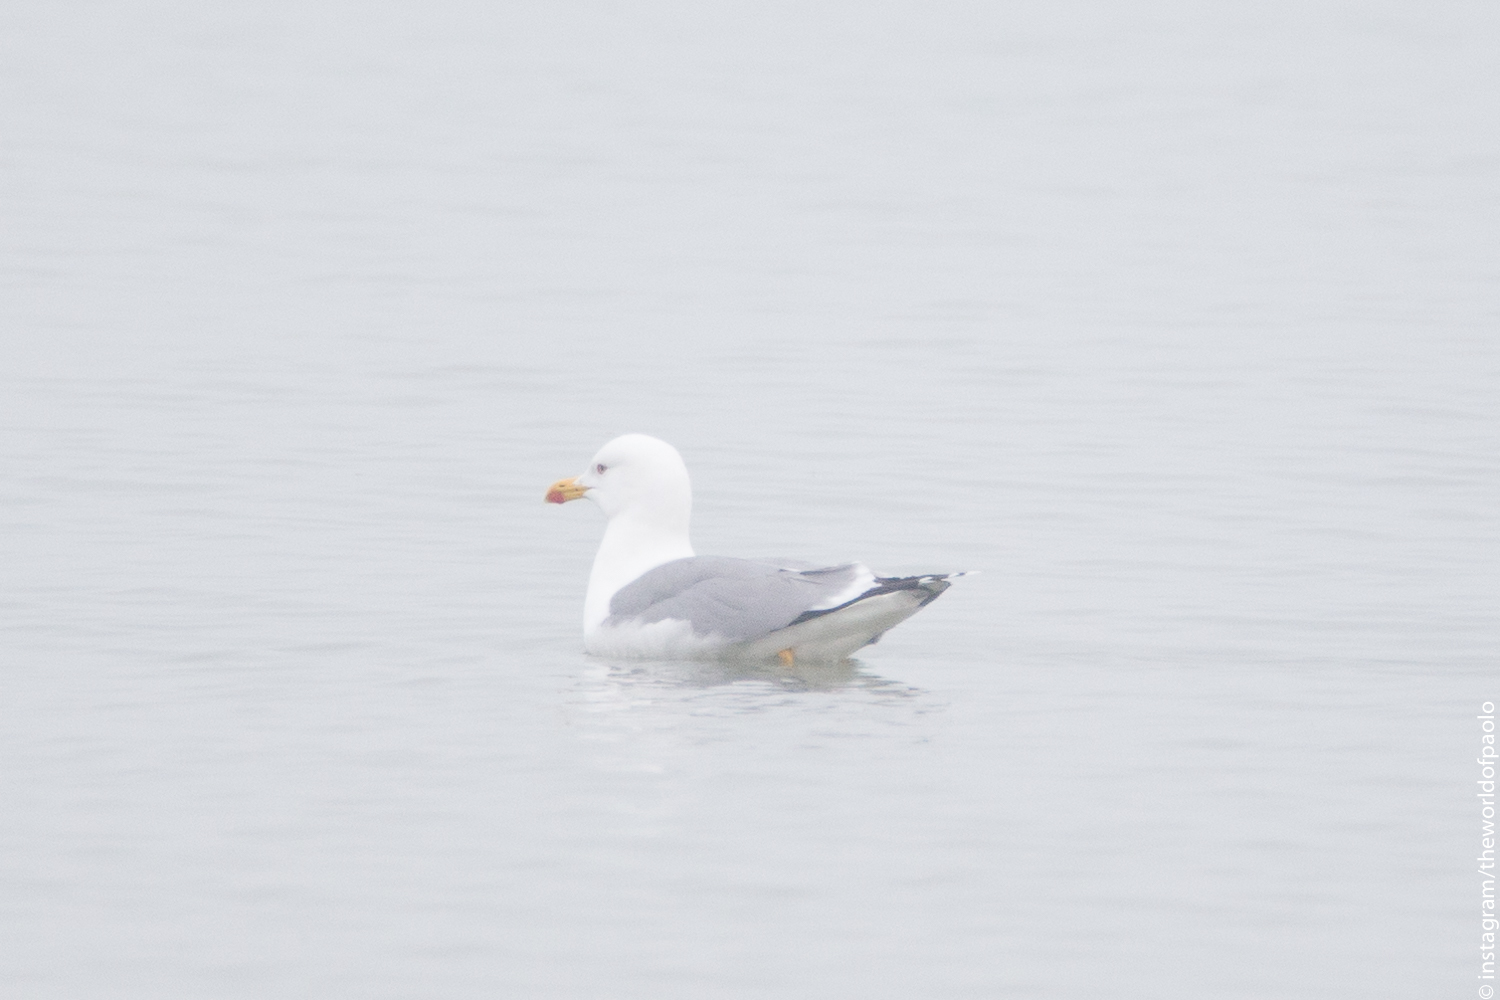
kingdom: Animalia
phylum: Chordata
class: Aves
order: Charadriiformes
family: Laridae
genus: Larus
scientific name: Larus michahellis
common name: Yellow-legged gull
